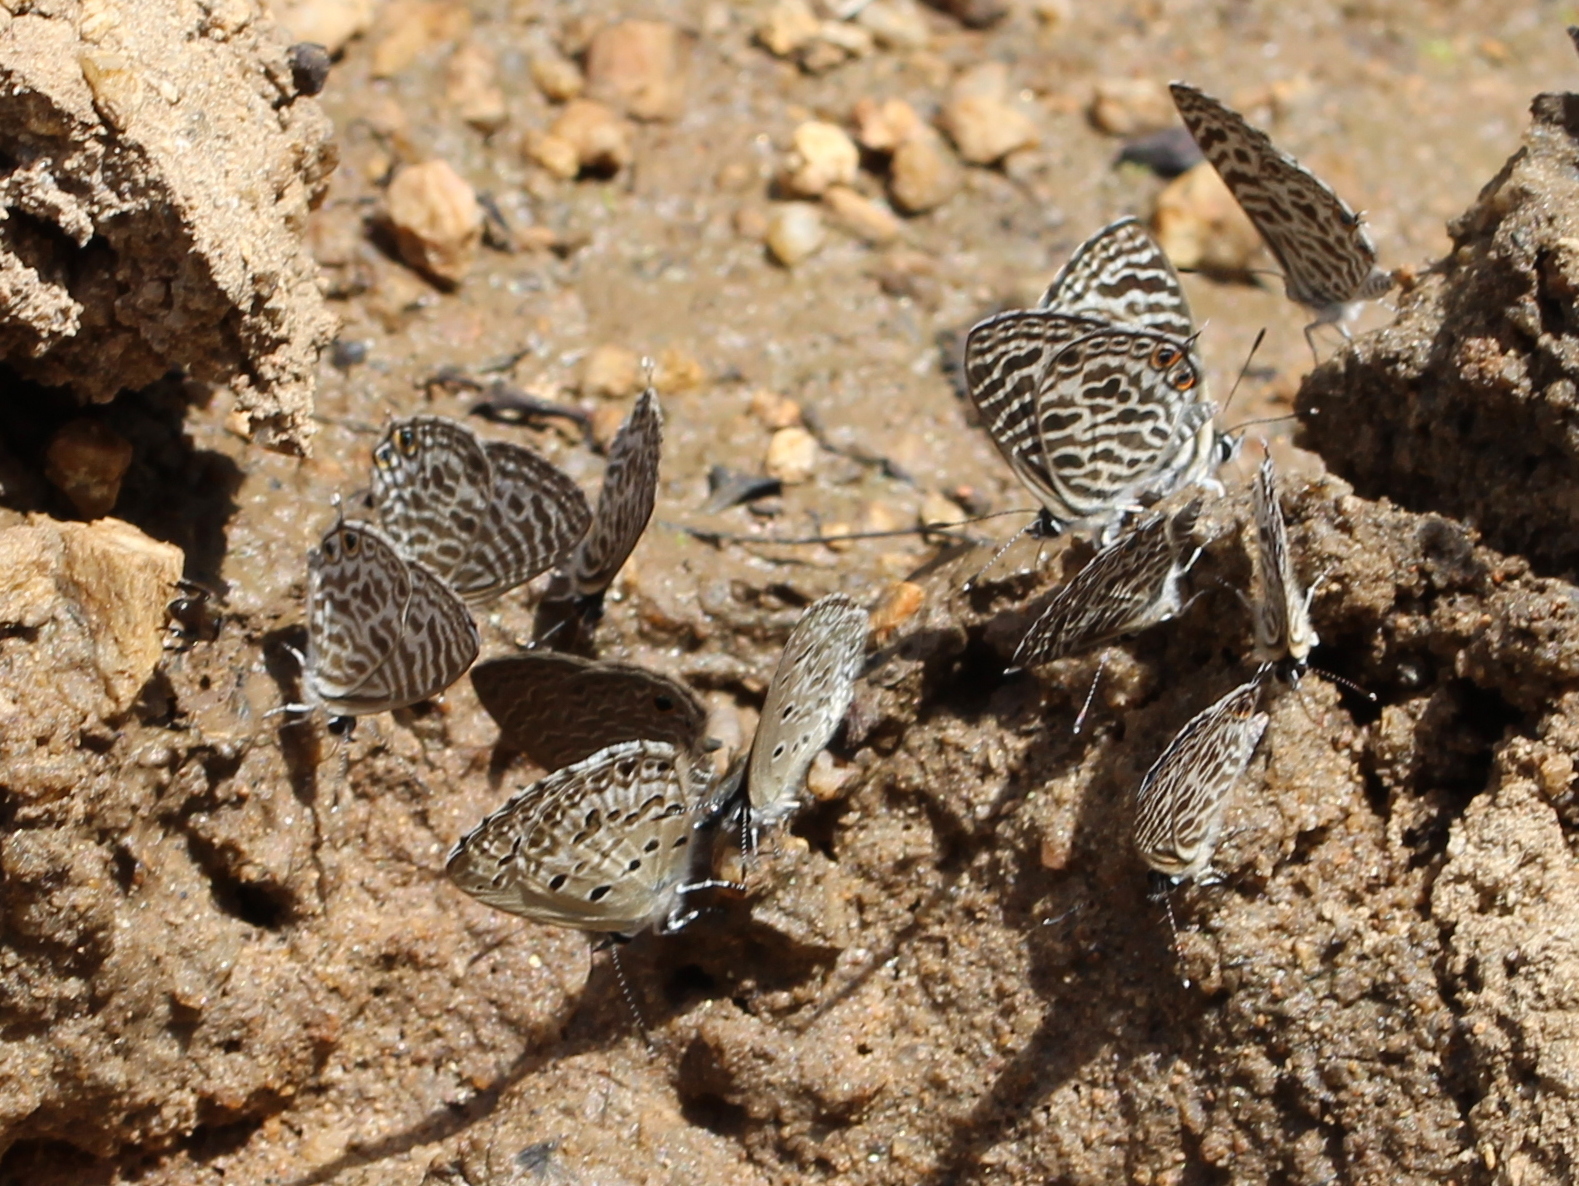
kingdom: Animalia
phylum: Arthropoda
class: Insecta
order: Lepidoptera
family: Lycaenidae
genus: Leptotes
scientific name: Leptotes plinius
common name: Zebra blue
